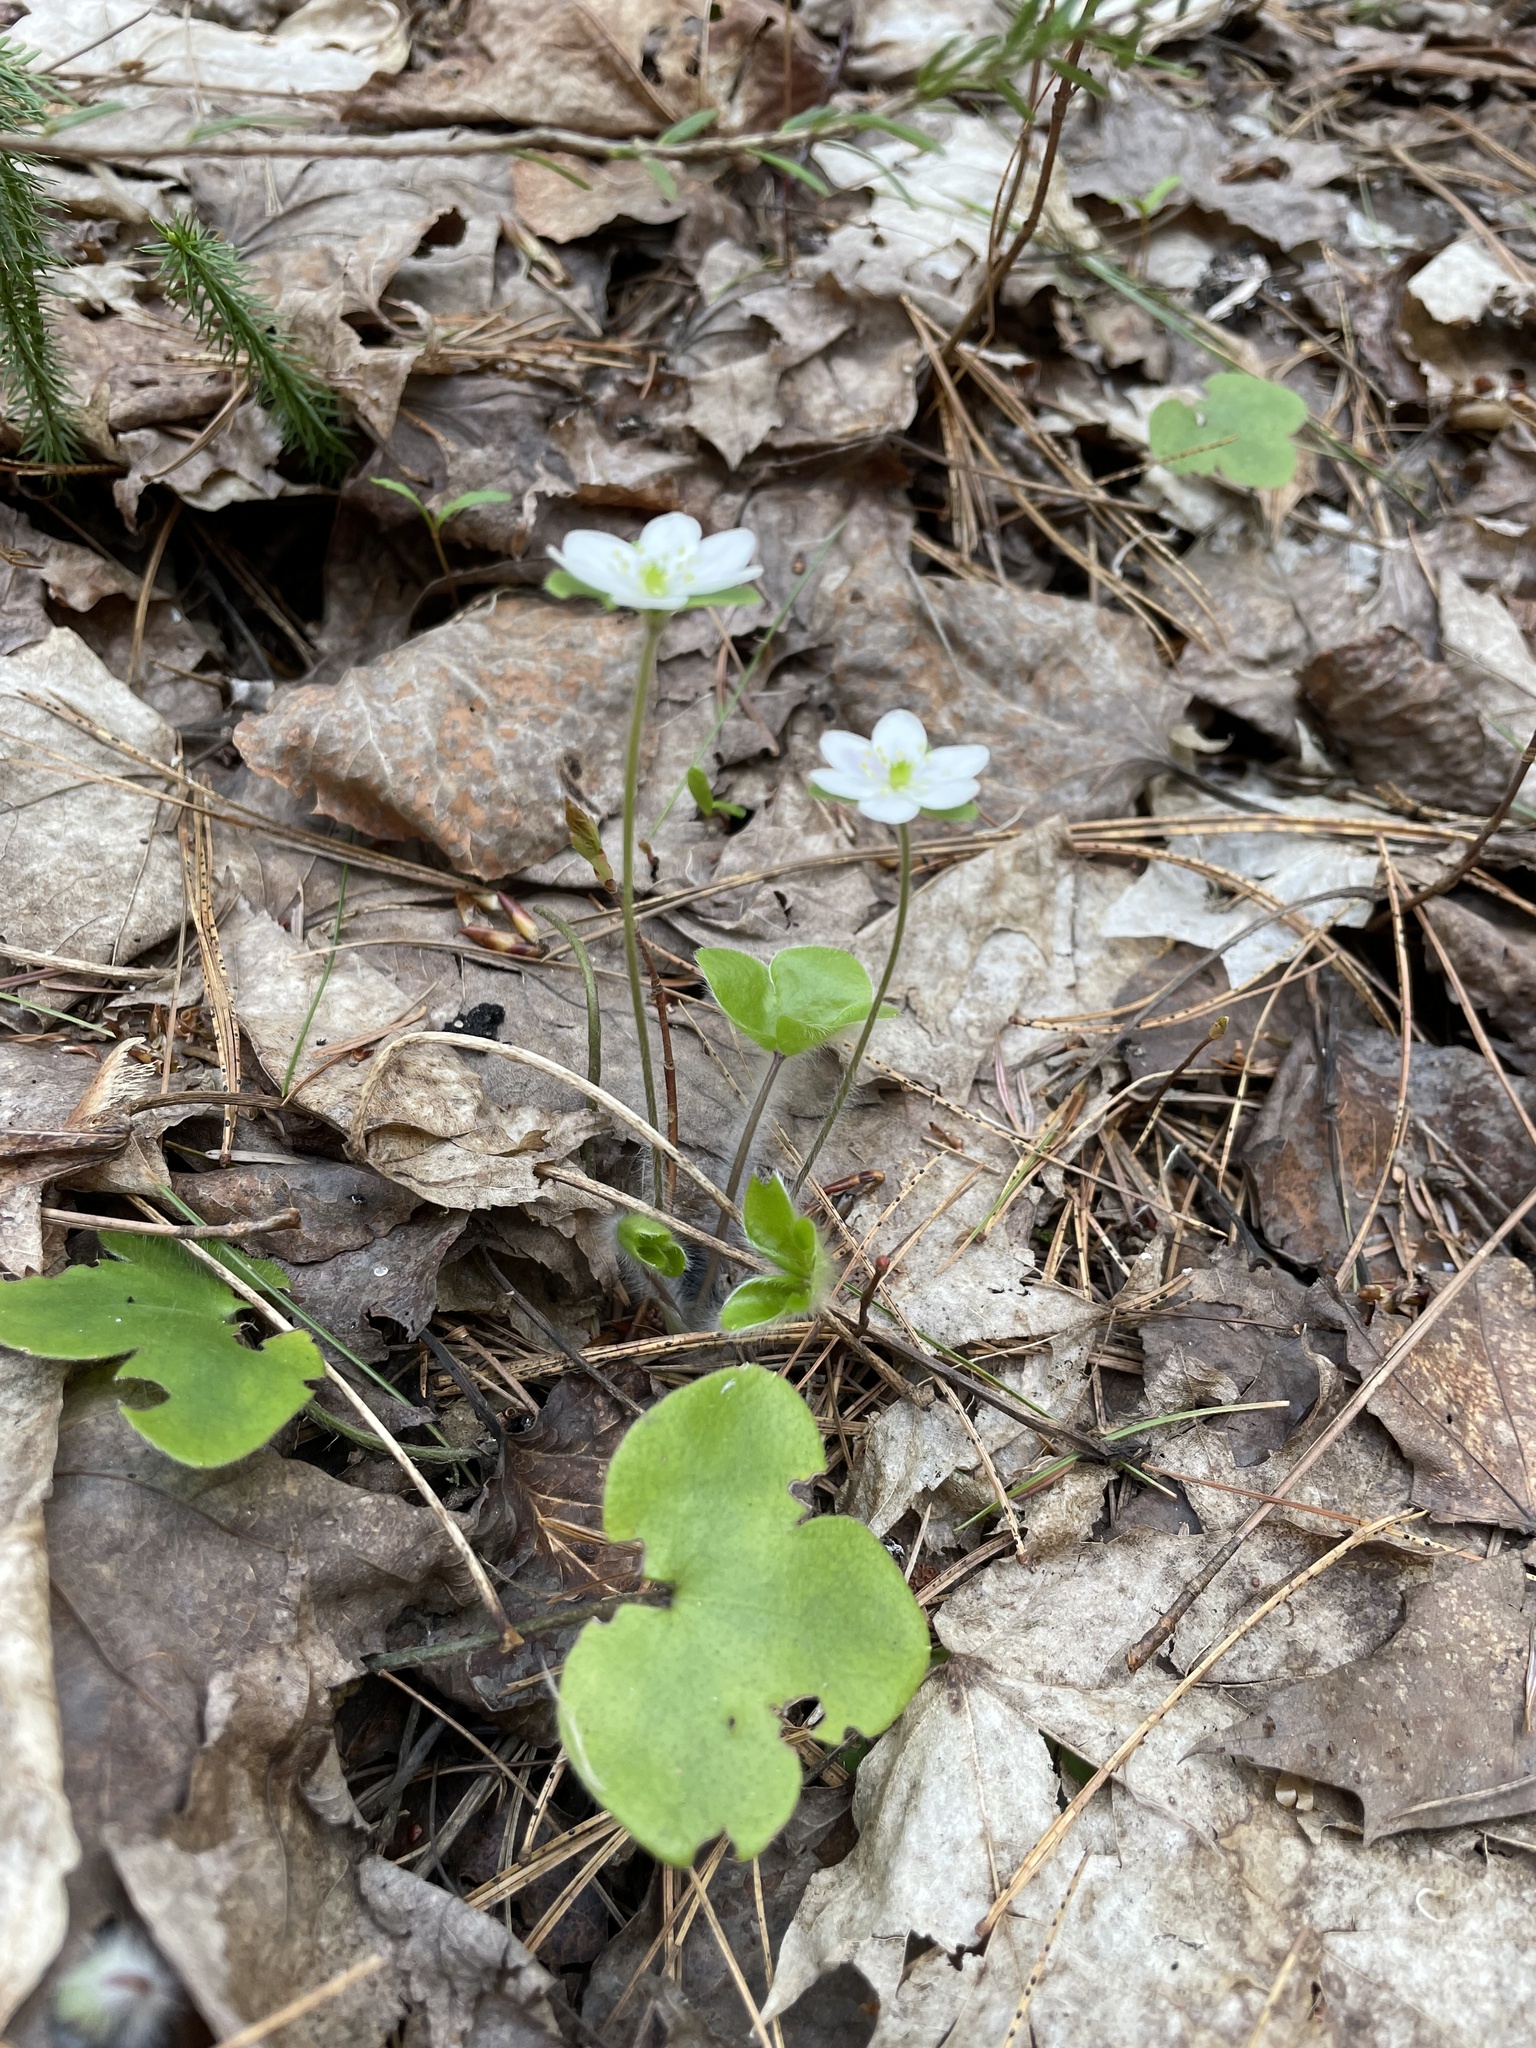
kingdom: Plantae
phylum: Tracheophyta
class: Magnoliopsida
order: Ranunculales
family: Ranunculaceae
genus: Hepatica
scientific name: Hepatica americana
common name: American hepatica
